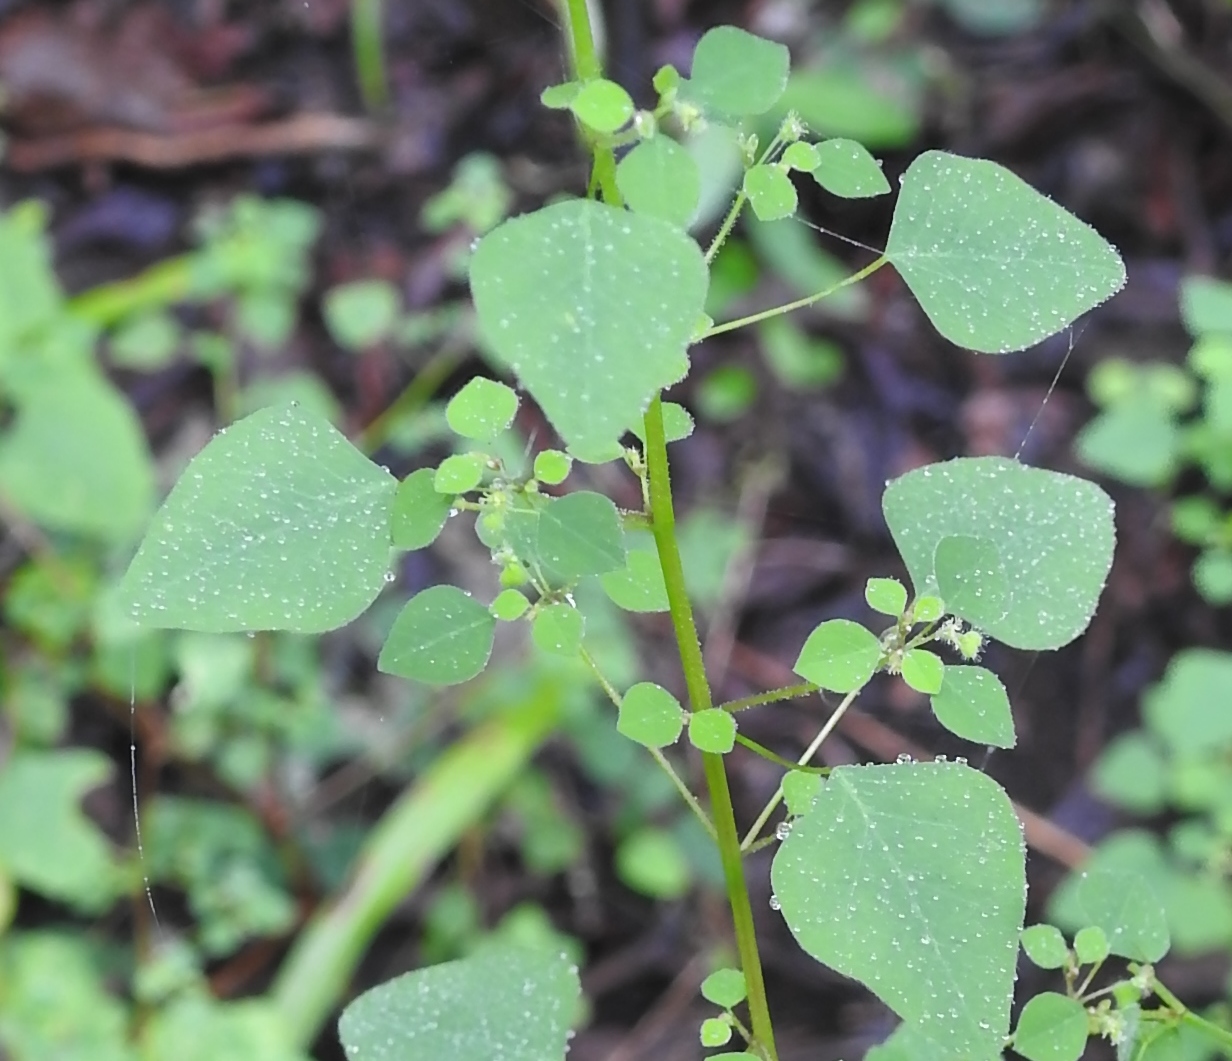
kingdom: Plantae
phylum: Tracheophyta
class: Magnoliopsida
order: Malpighiales
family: Euphorbiaceae
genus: Euphorbia
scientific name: Euphorbia ocymoidea
